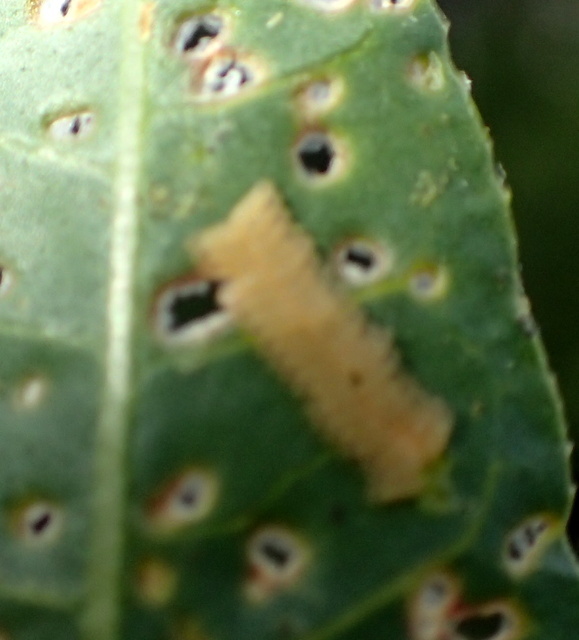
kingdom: Animalia
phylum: Arthropoda
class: Insecta
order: Coleoptera
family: Chrysomelidae
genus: Agasicles
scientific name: Agasicles hygrophila
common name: Alligatorweed flea beetle
